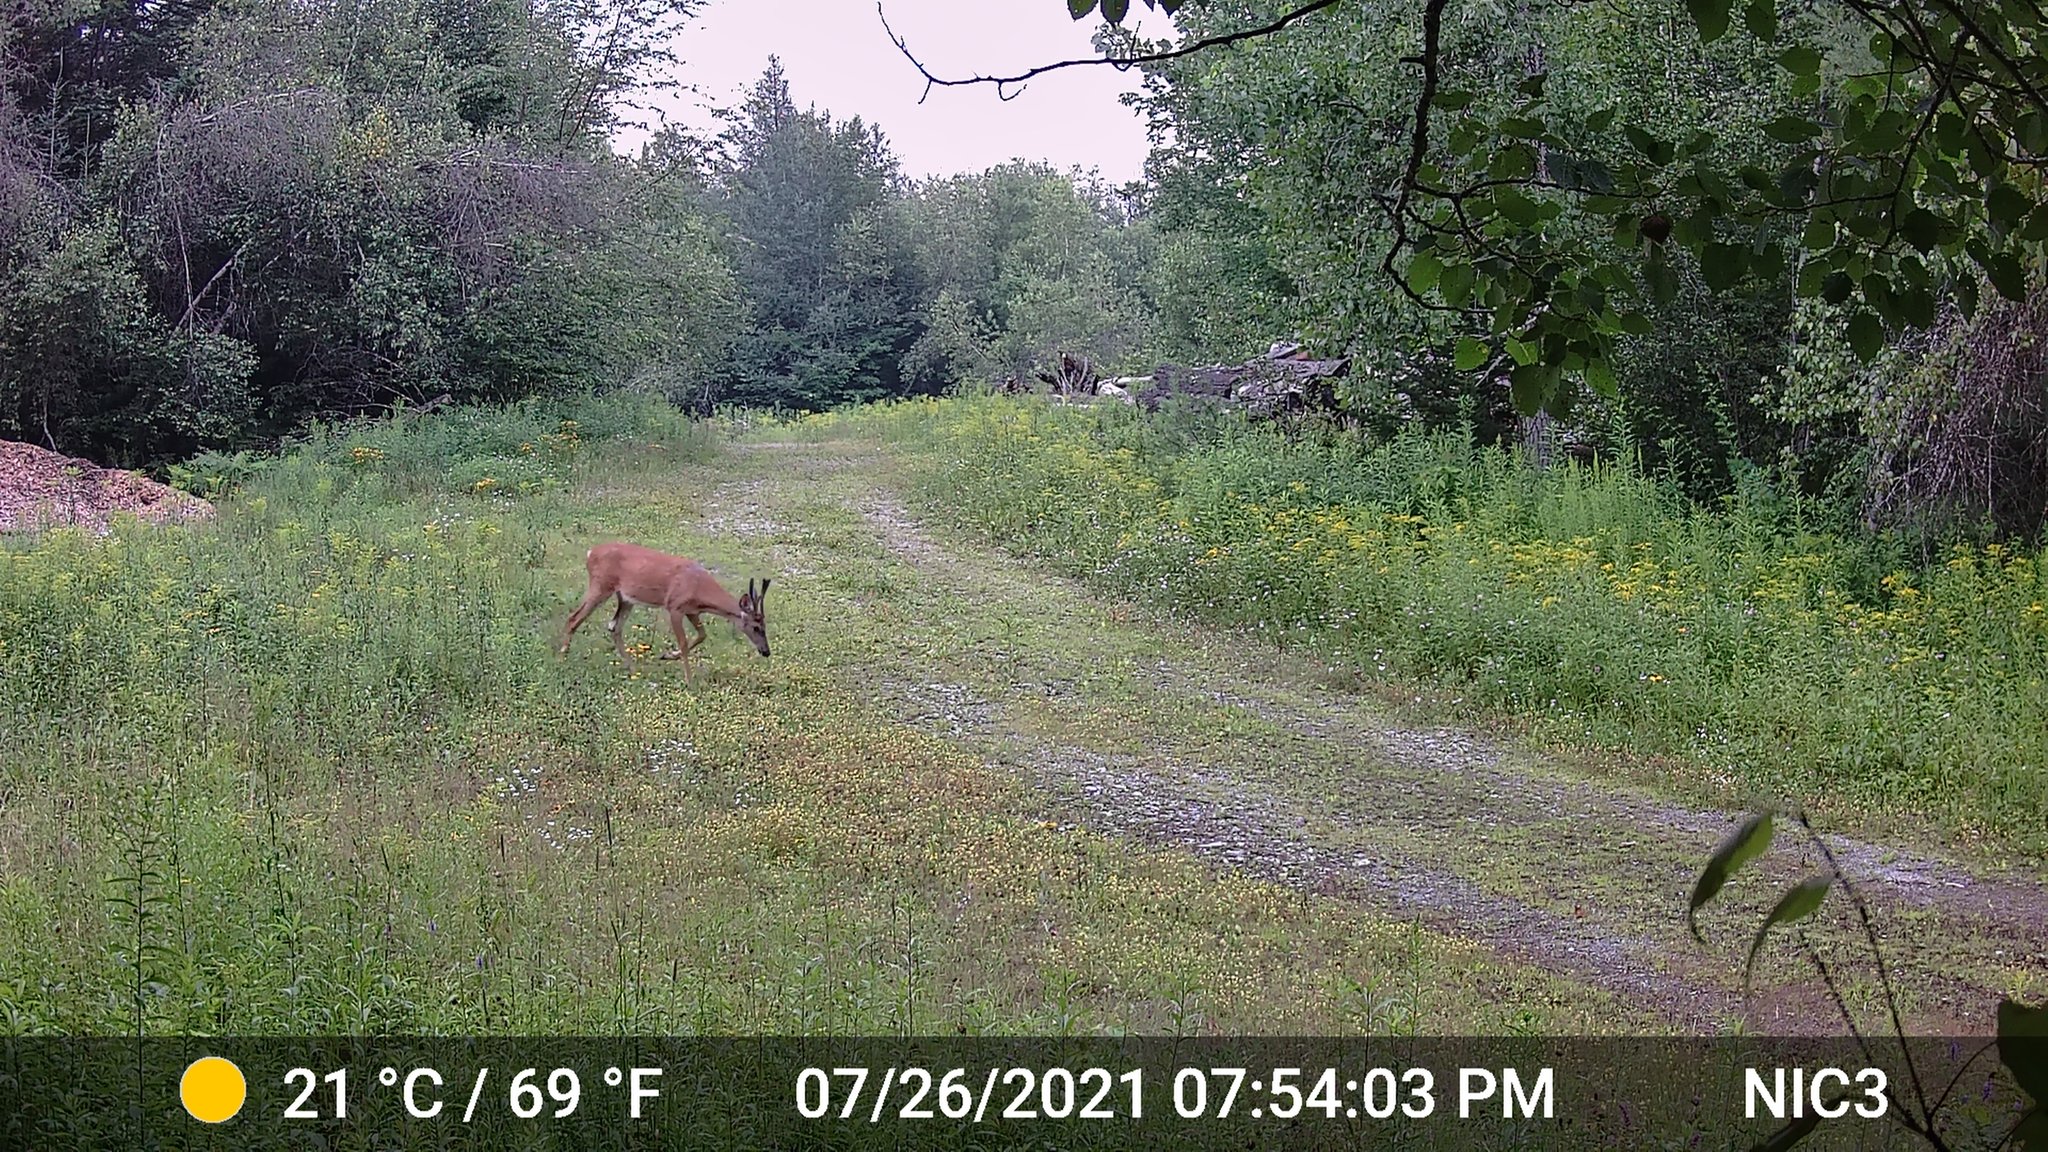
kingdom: Animalia
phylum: Chordata
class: Mammalia
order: Artiodactyla
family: Cervidae
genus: Odocoileus
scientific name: Odocoileus virginianus
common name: White-tailed deer
